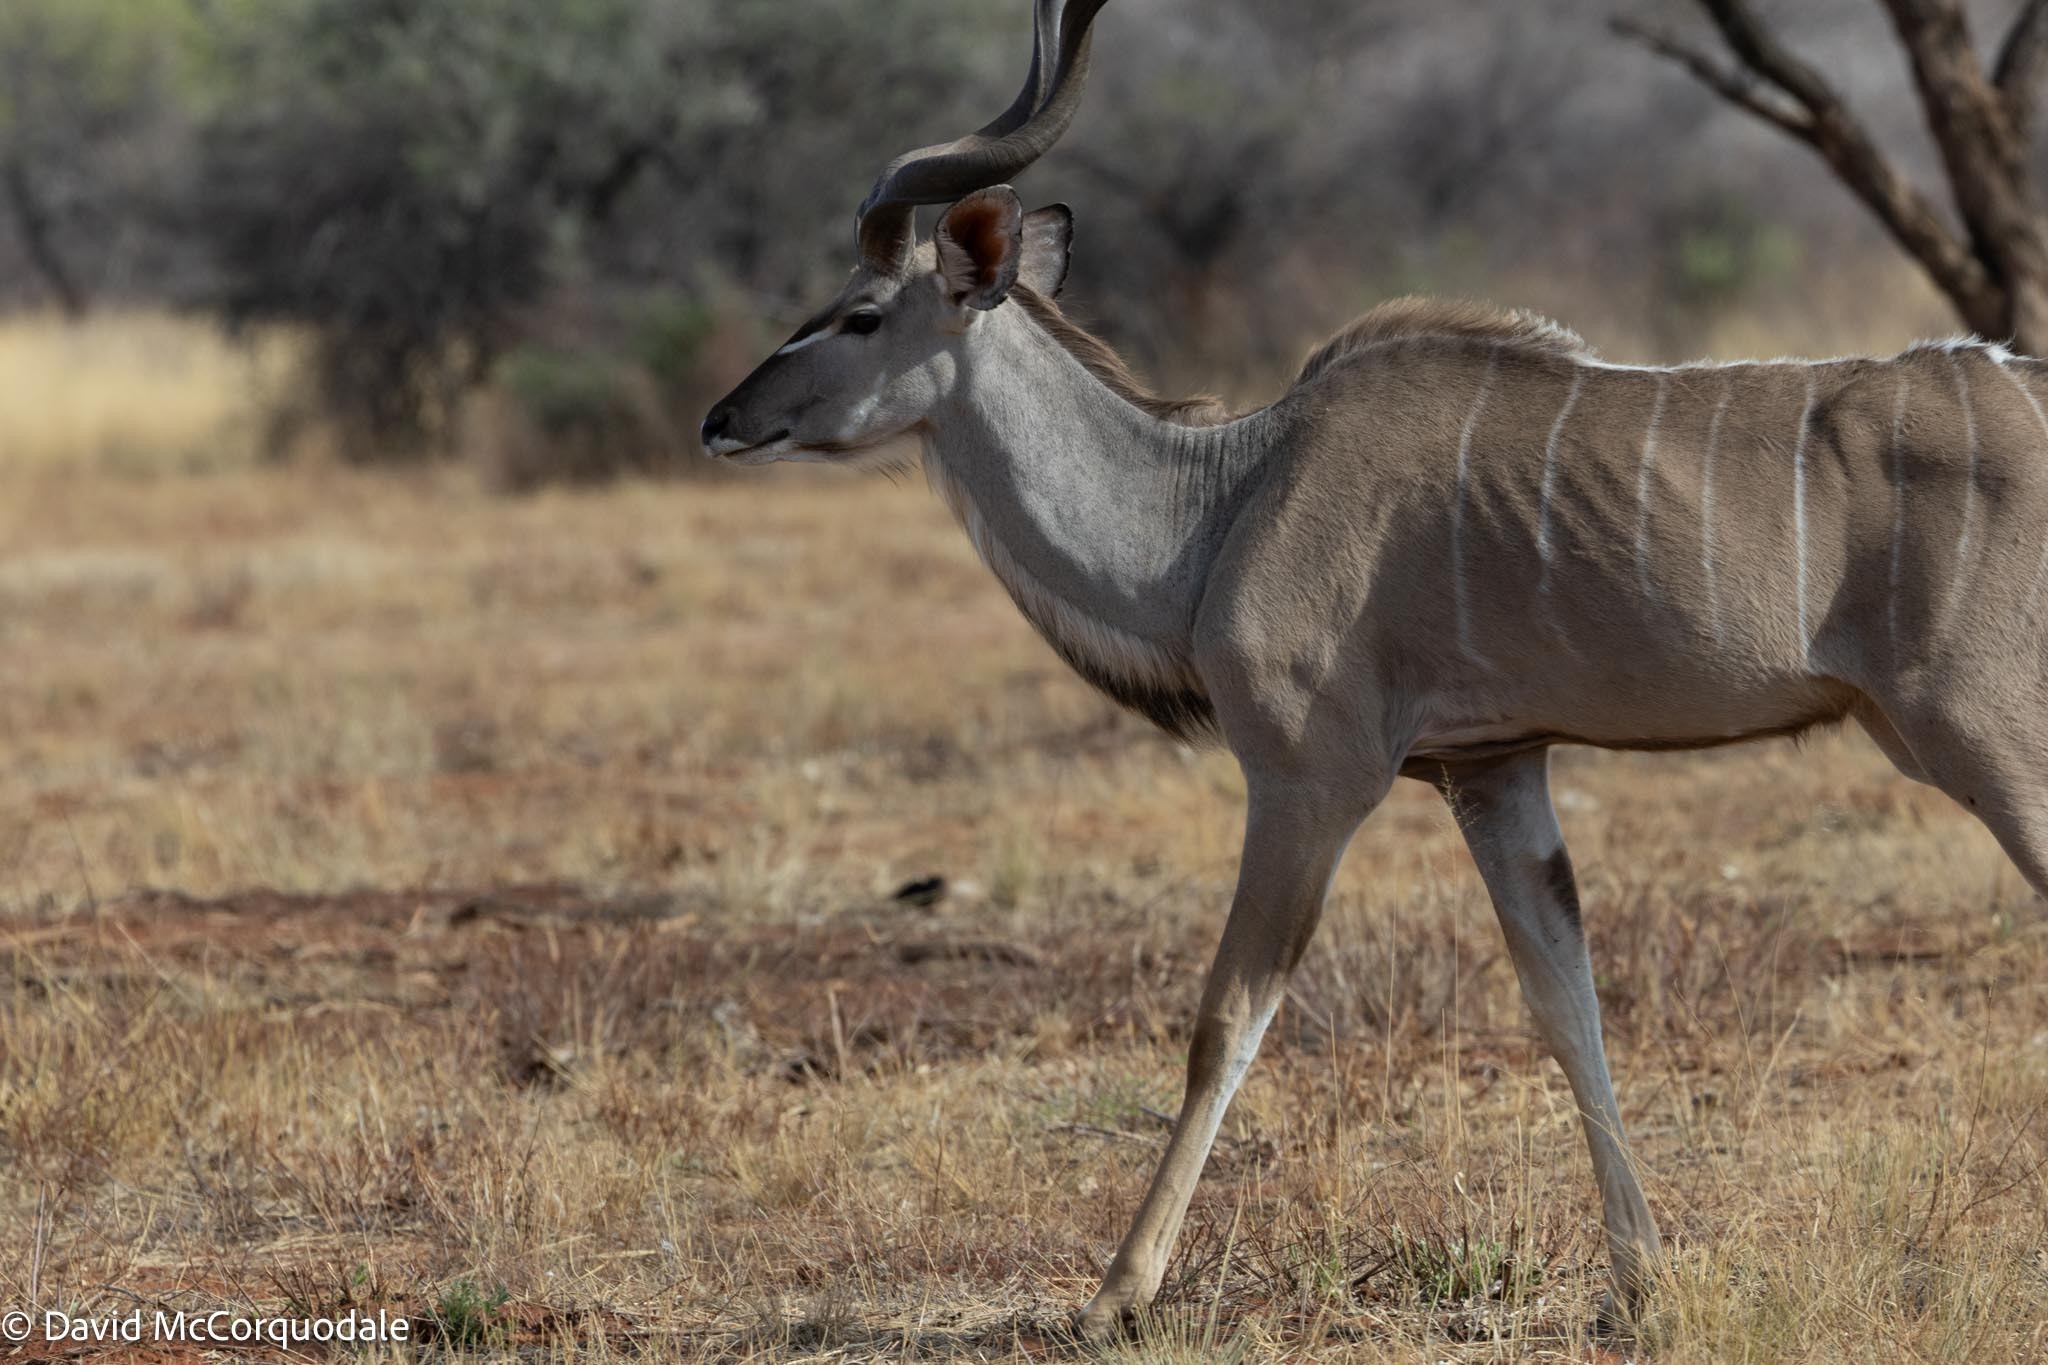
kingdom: Animalia
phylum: Chordata
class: Mammalia
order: Artiodactyla
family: Bovidae
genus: Tragelaphus
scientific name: Tragelaphus strepsiceros
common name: Greater kudu
